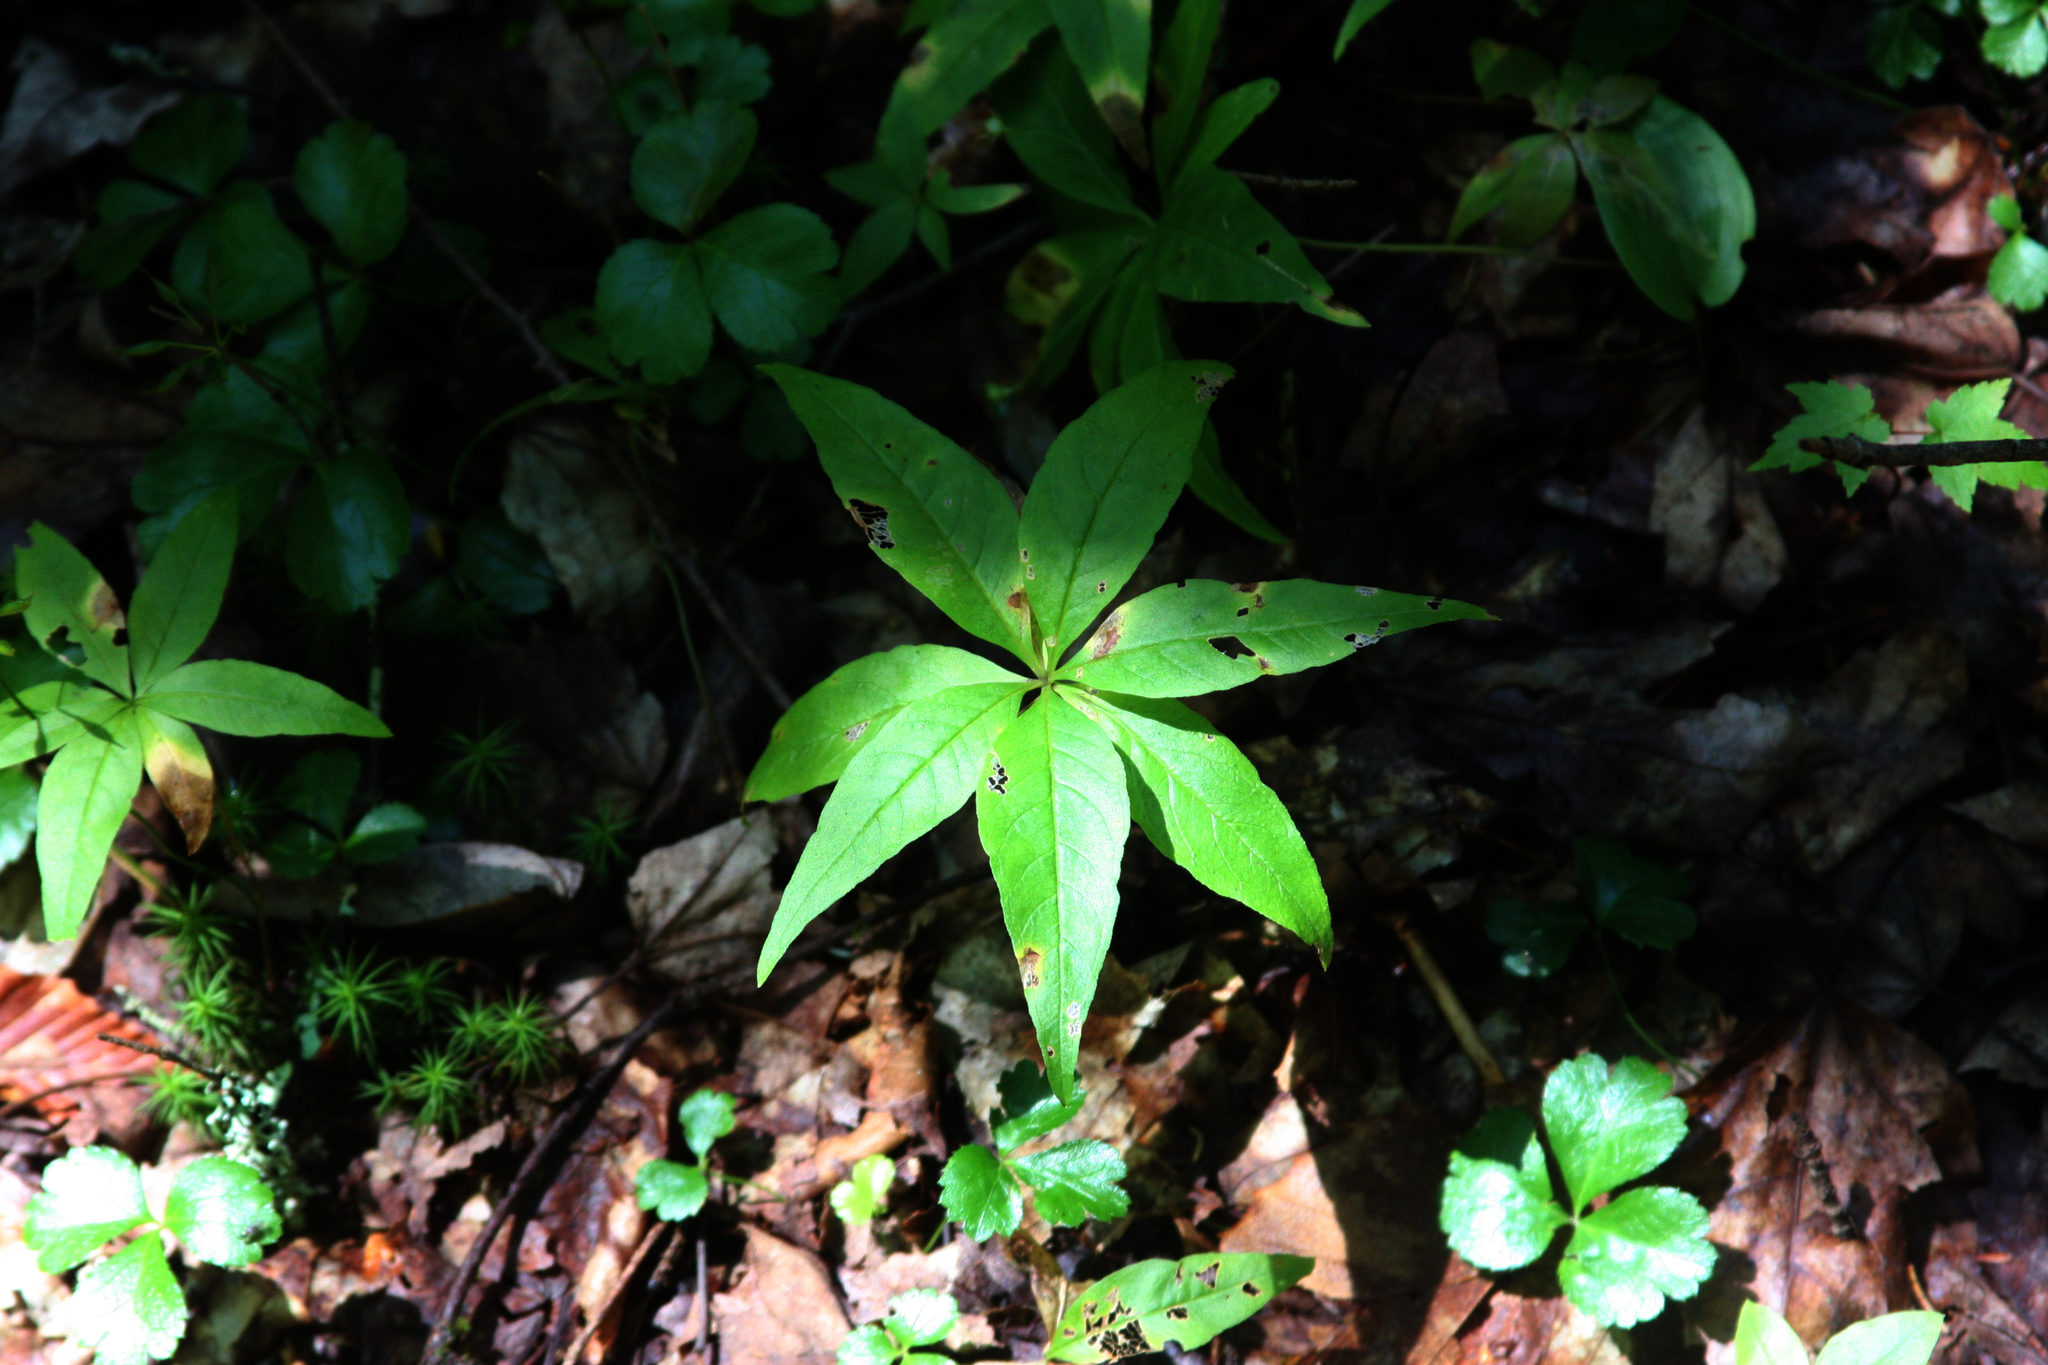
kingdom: Plantae
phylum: Tracheophyta
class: Magnoliopsida
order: Ericales
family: Primulaceae
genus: Lysimachia
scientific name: Lysimachia borealis
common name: American starflower
